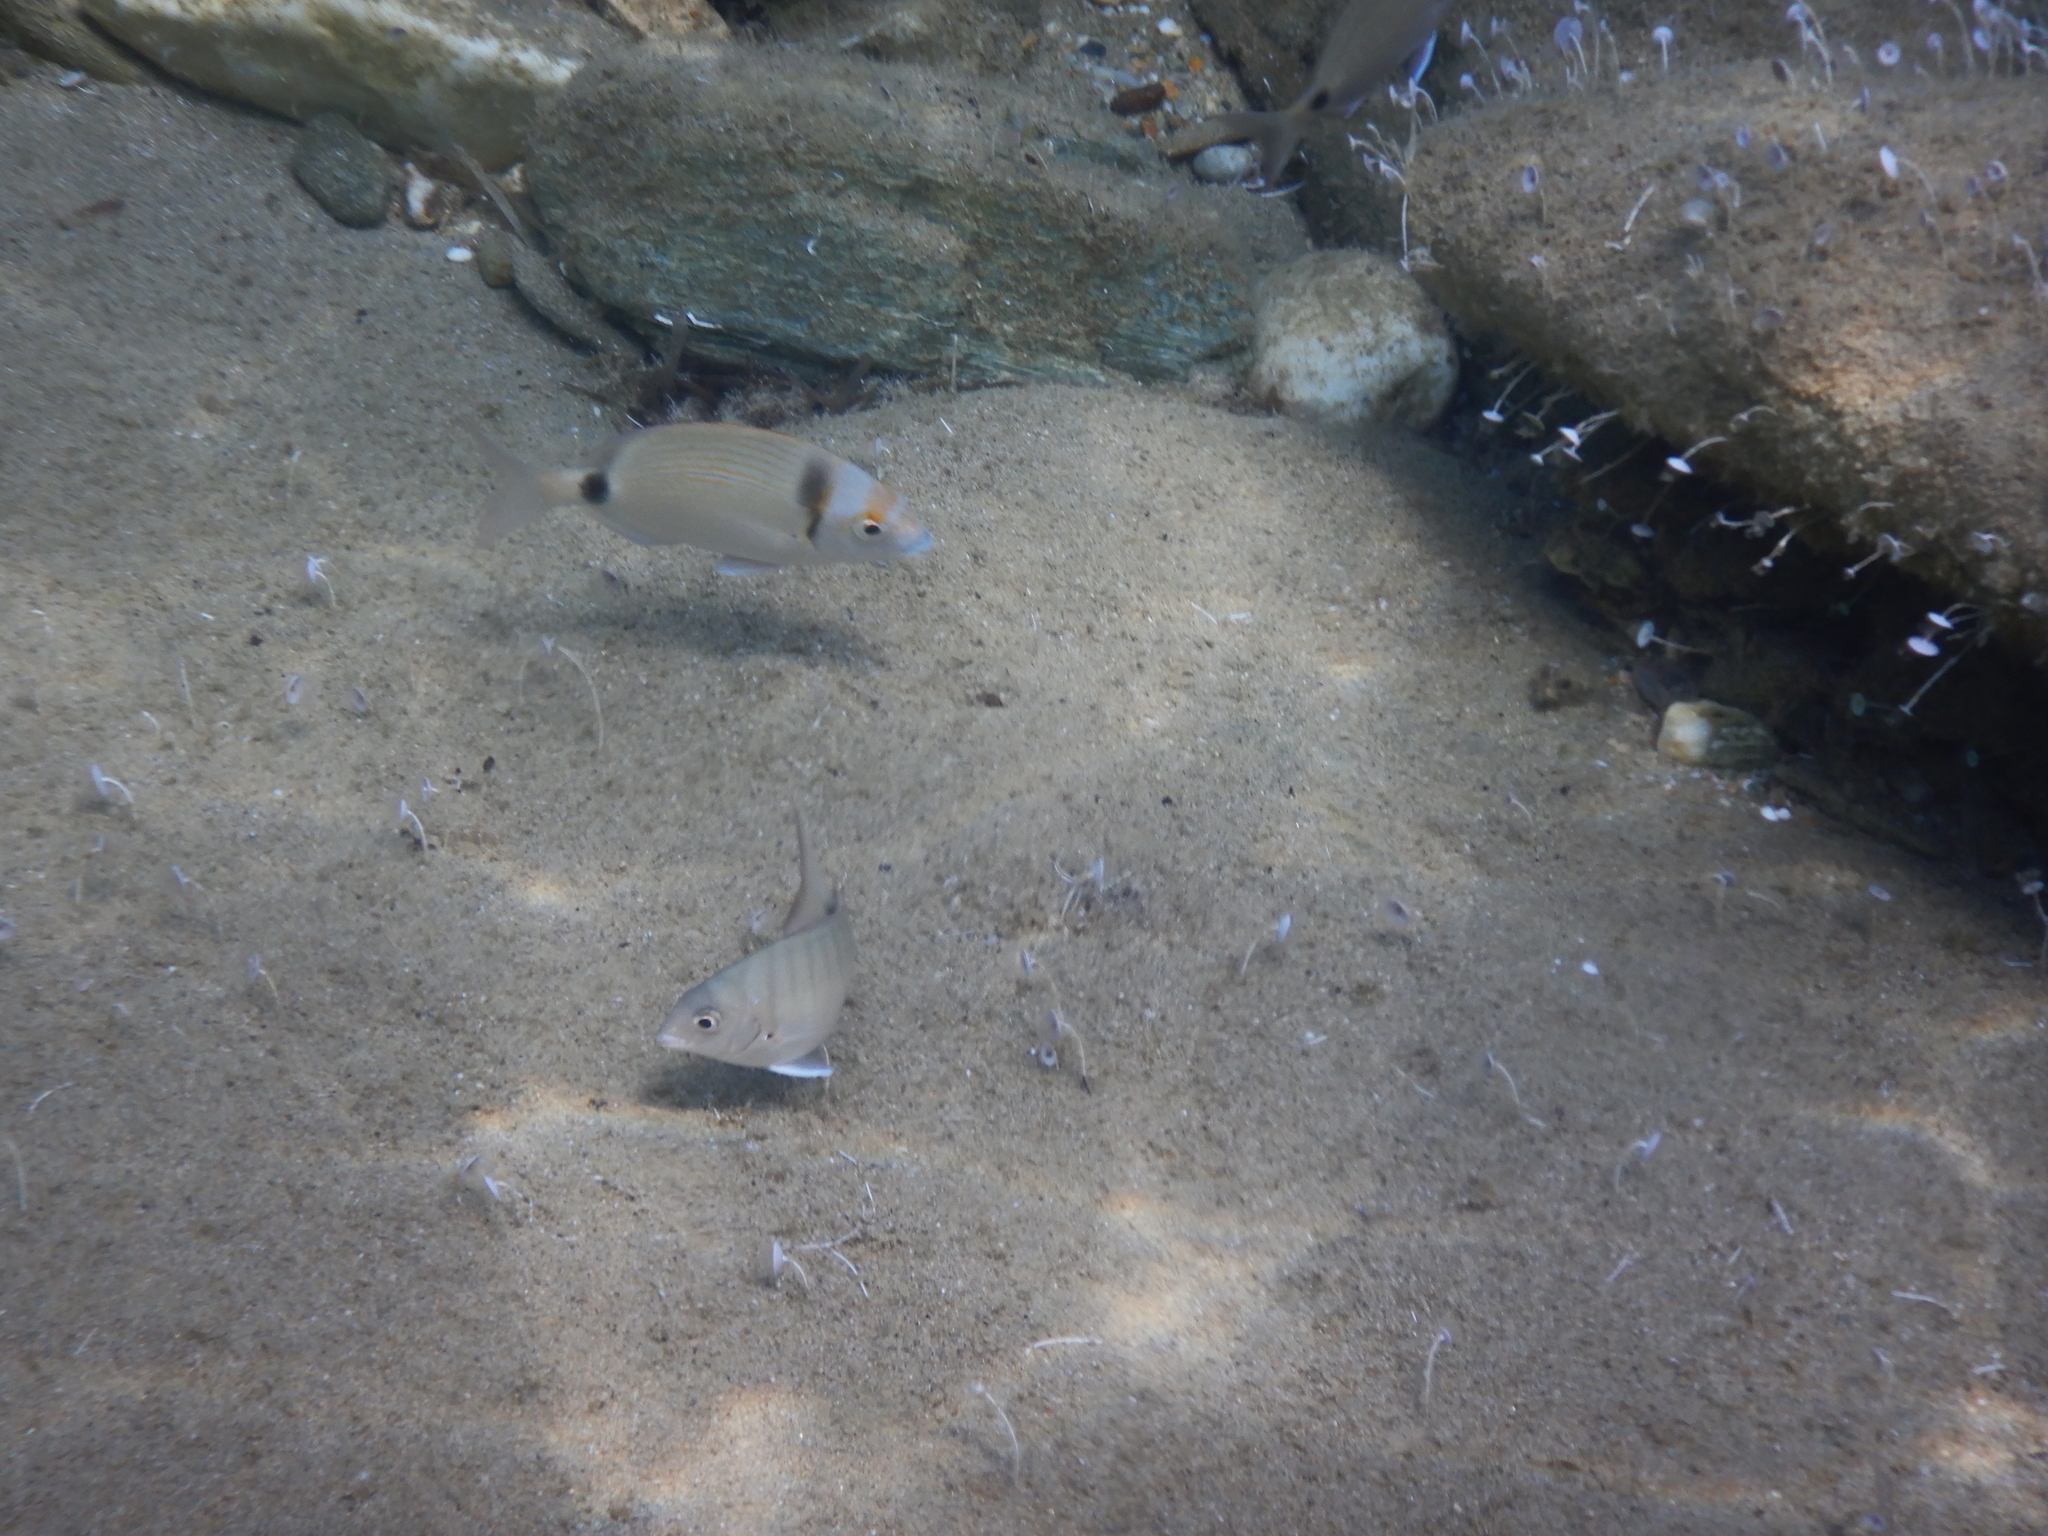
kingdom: Animalia
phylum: Chordata
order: Perciformes
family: Sparidae
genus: Diplodus
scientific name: Diplodus vulgaris
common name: Common two-banded seabream
